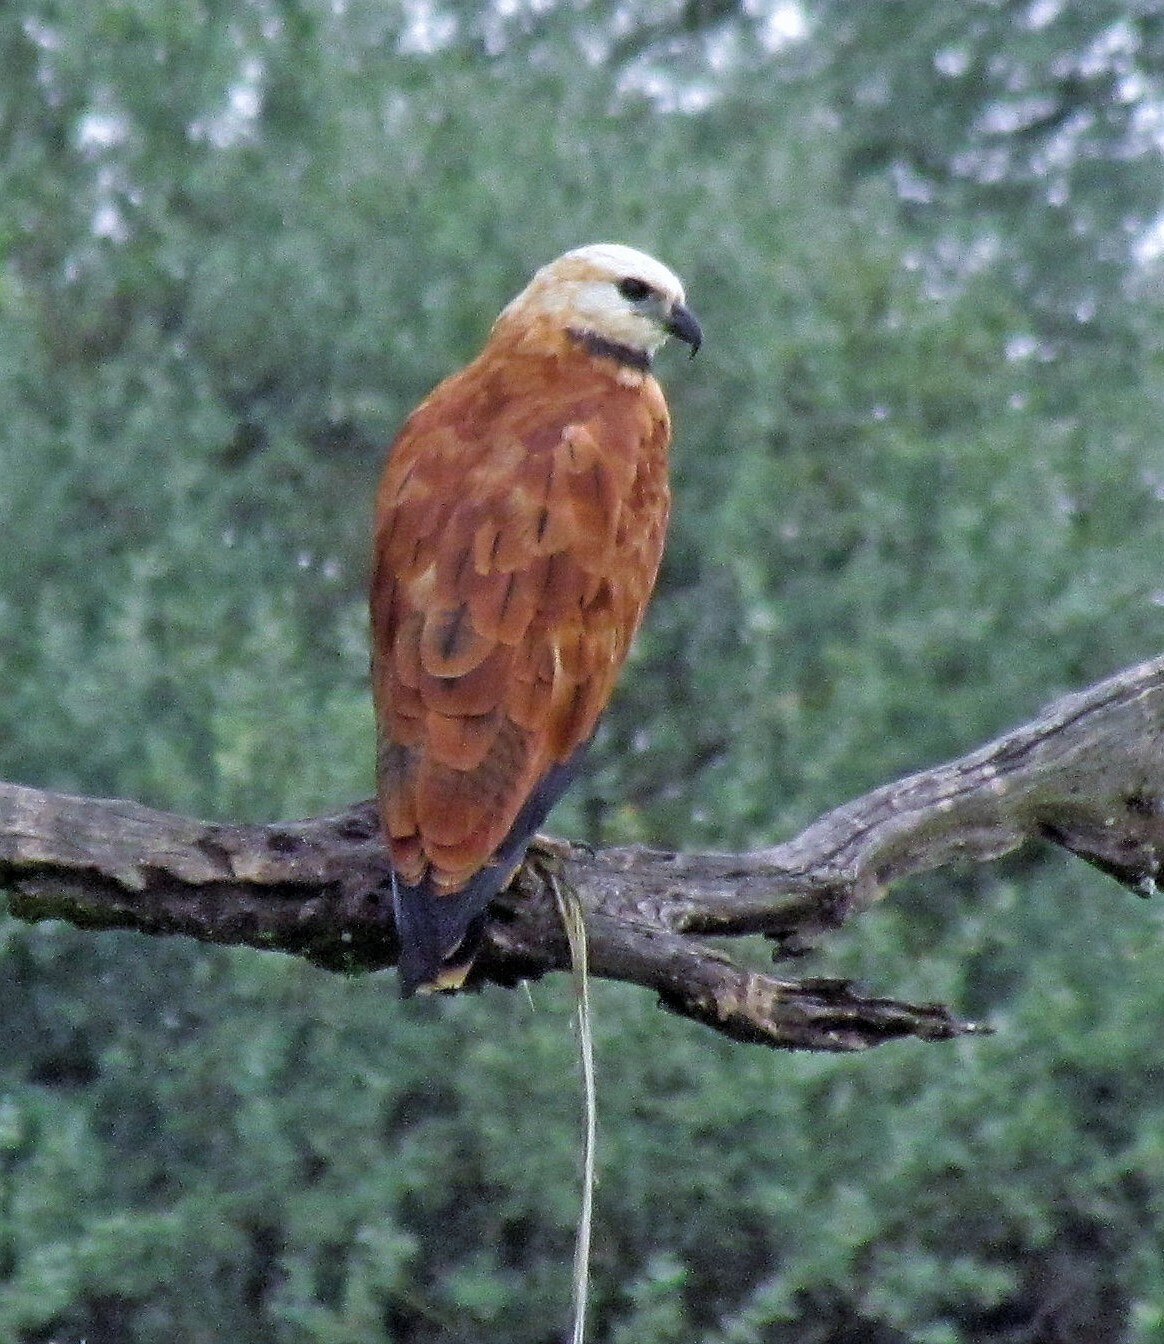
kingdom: Animalia
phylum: Chordata
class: Aves
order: Accipitriformes
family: Accipitridae
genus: Busarellus
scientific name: Busarellus nigricollis
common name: Black-collared hawk
